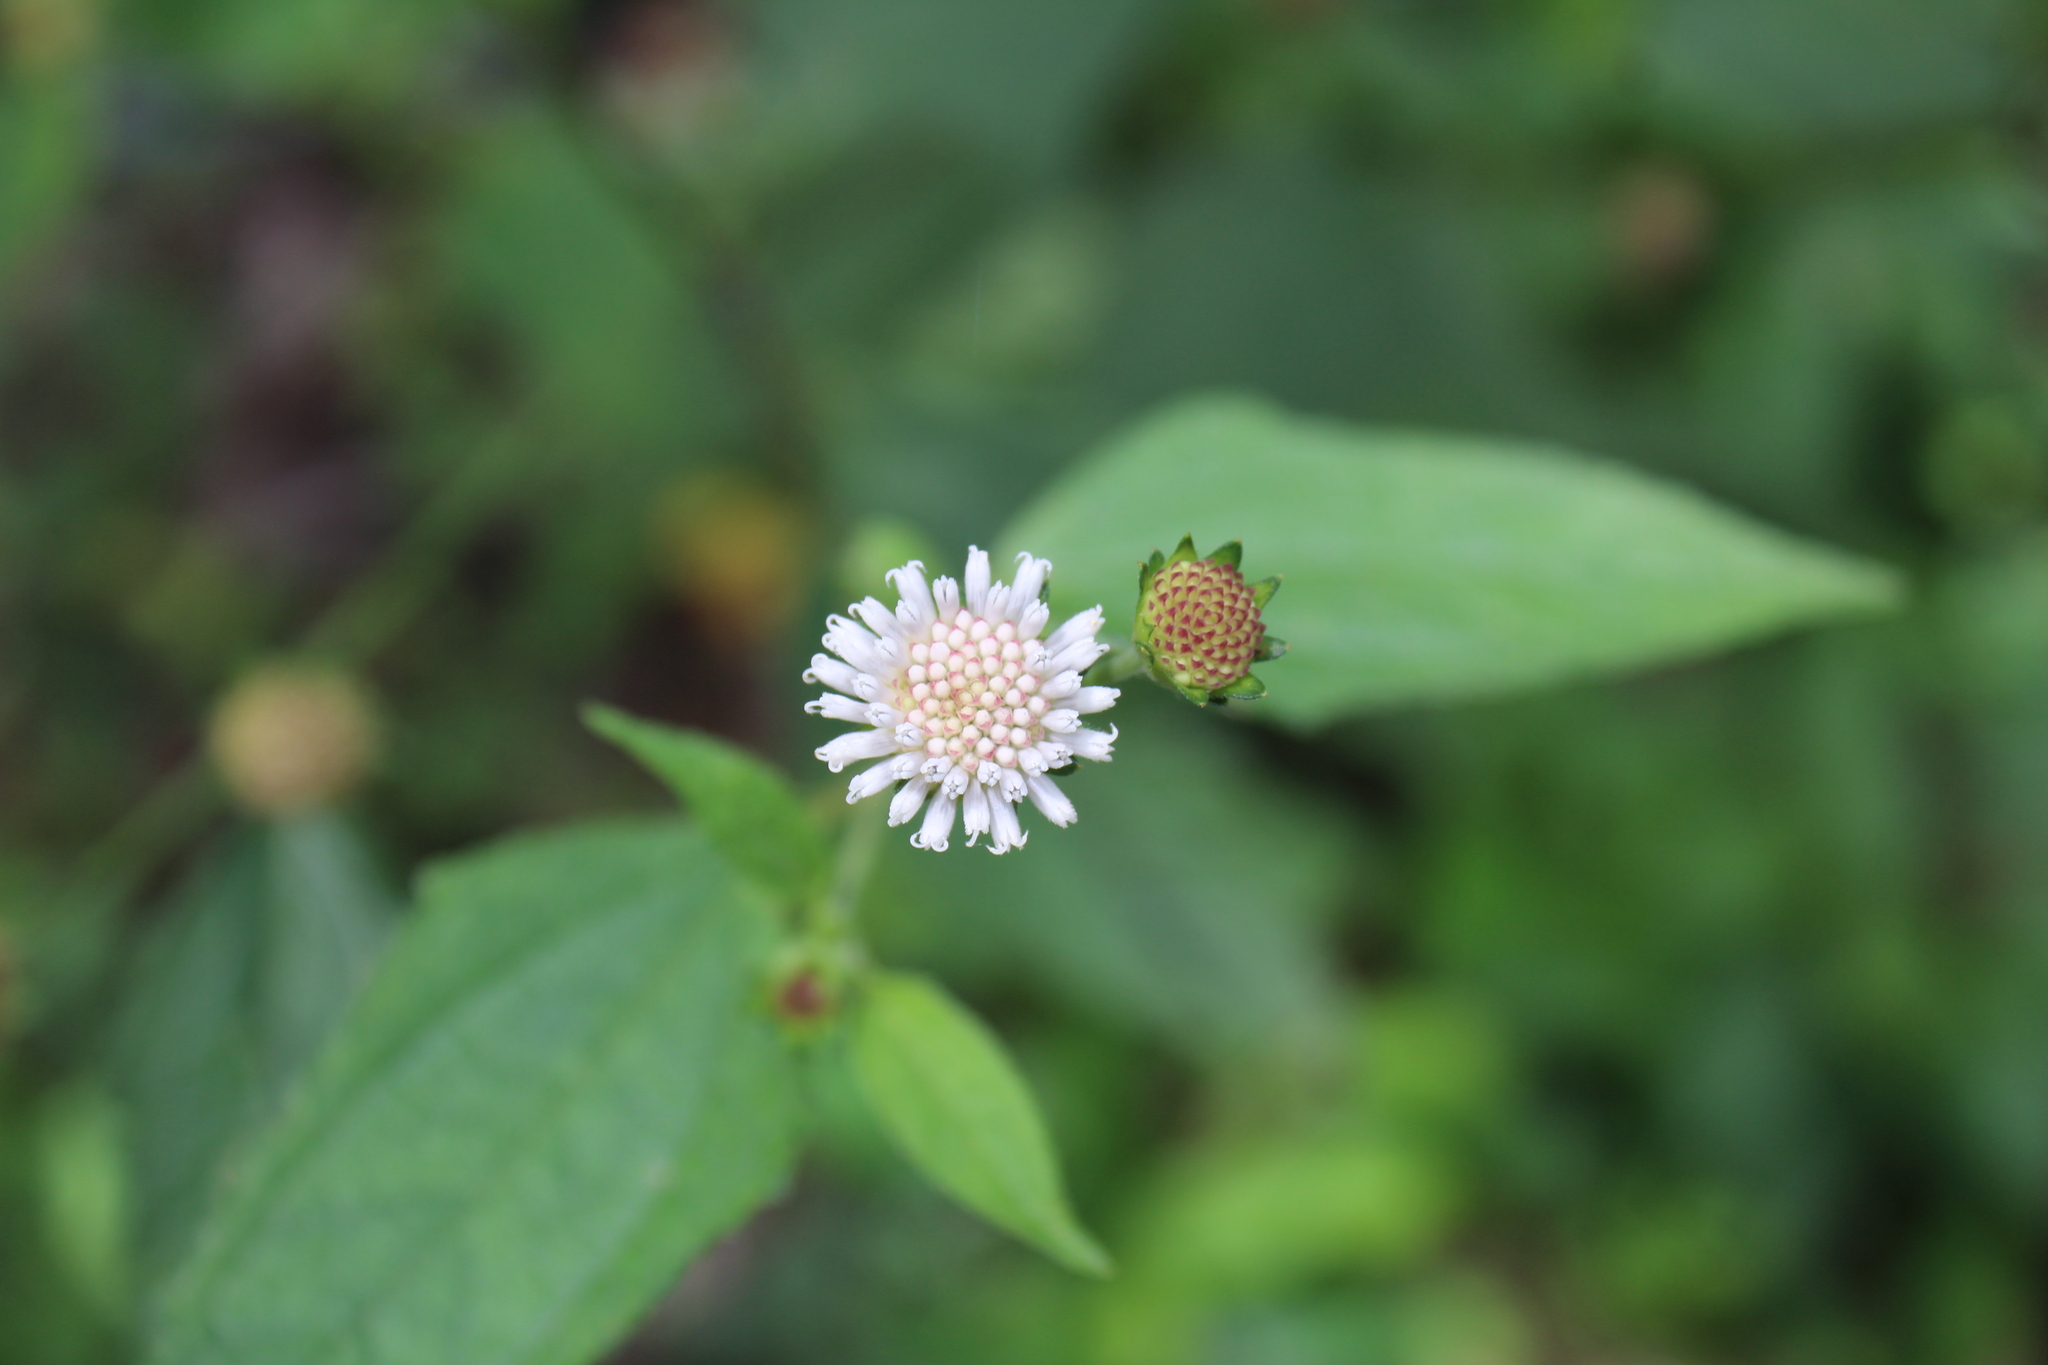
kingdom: Plantae
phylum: Tracheophyta
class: Magnoliopsida
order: Asterales
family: Asteraceae
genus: Melanthera
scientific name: Melanthera nivea
